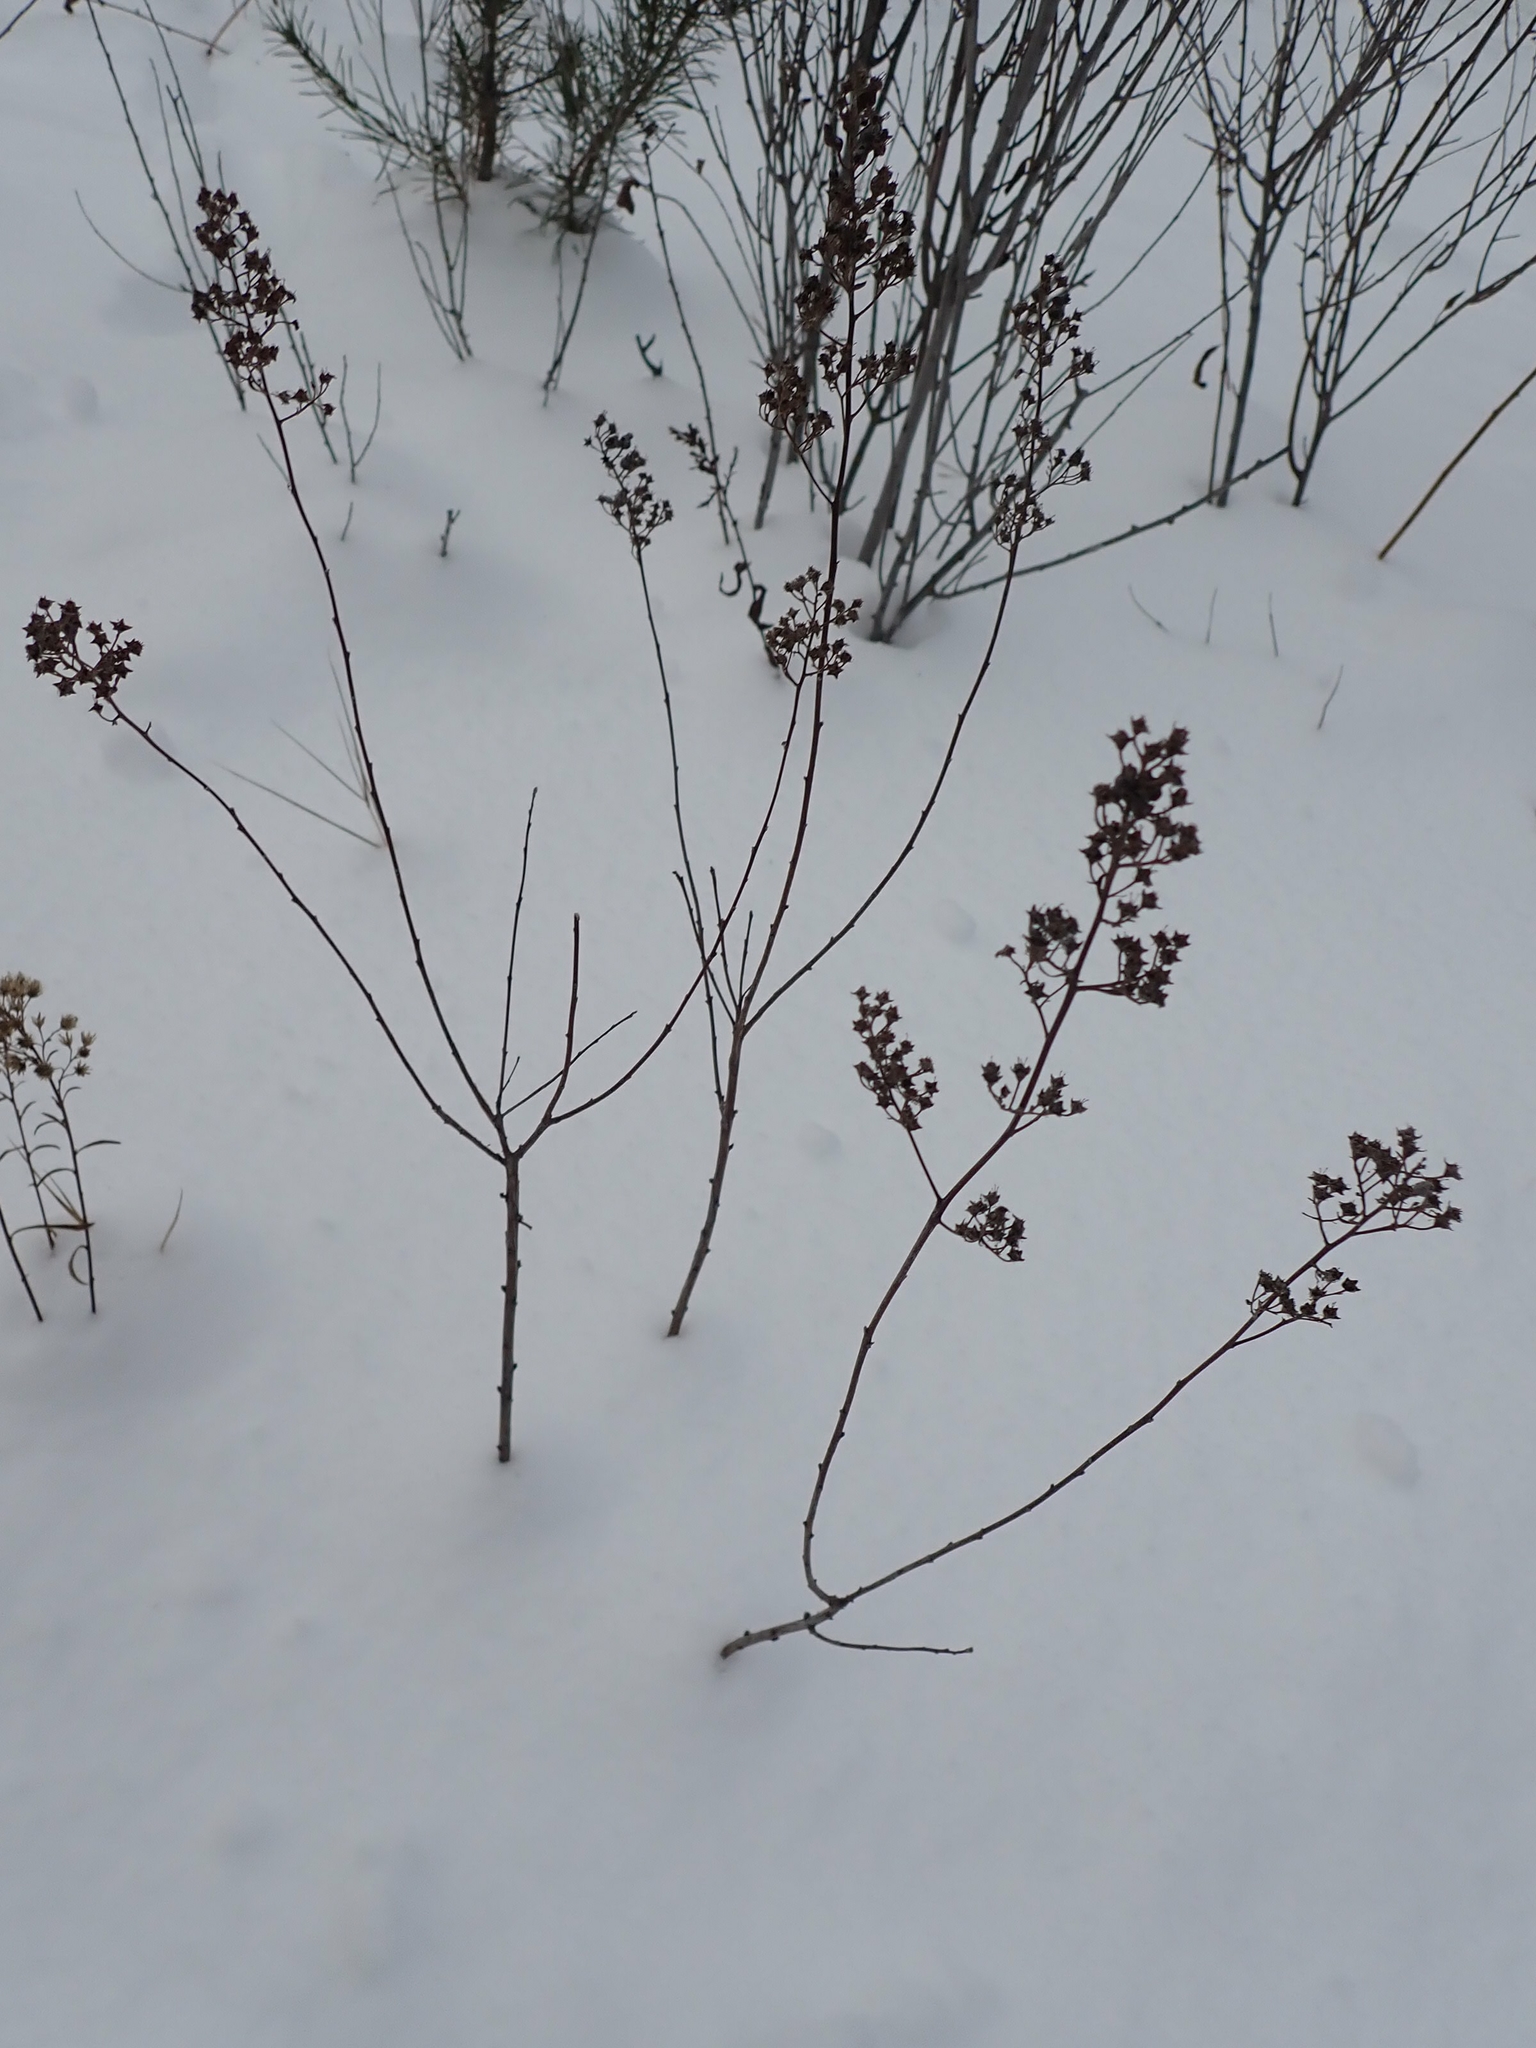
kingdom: Plantae
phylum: Tracheophyta
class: Magnoliopsida
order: Rosales
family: Rosaceae
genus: Spiraea
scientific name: Spiraea alba
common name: Pale bridewort
